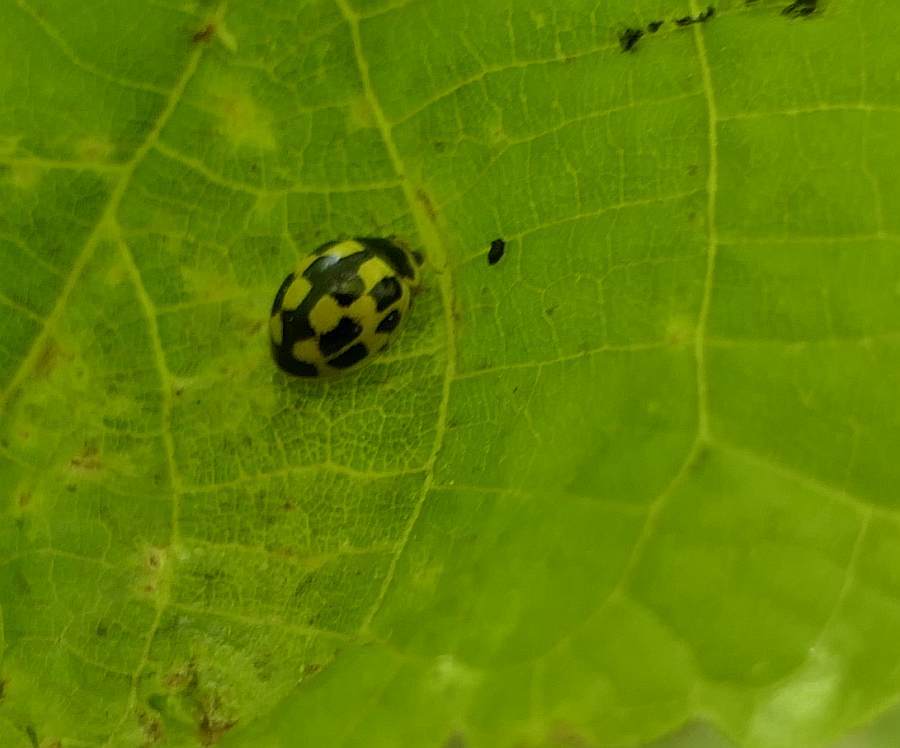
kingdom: Animalia
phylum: Arthropoda
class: Insecta
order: Coleoptera
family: Coccinellidae
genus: Propylaea
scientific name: Propylaea quatuordecimpunctata
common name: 14-spotted ladybird beetle
